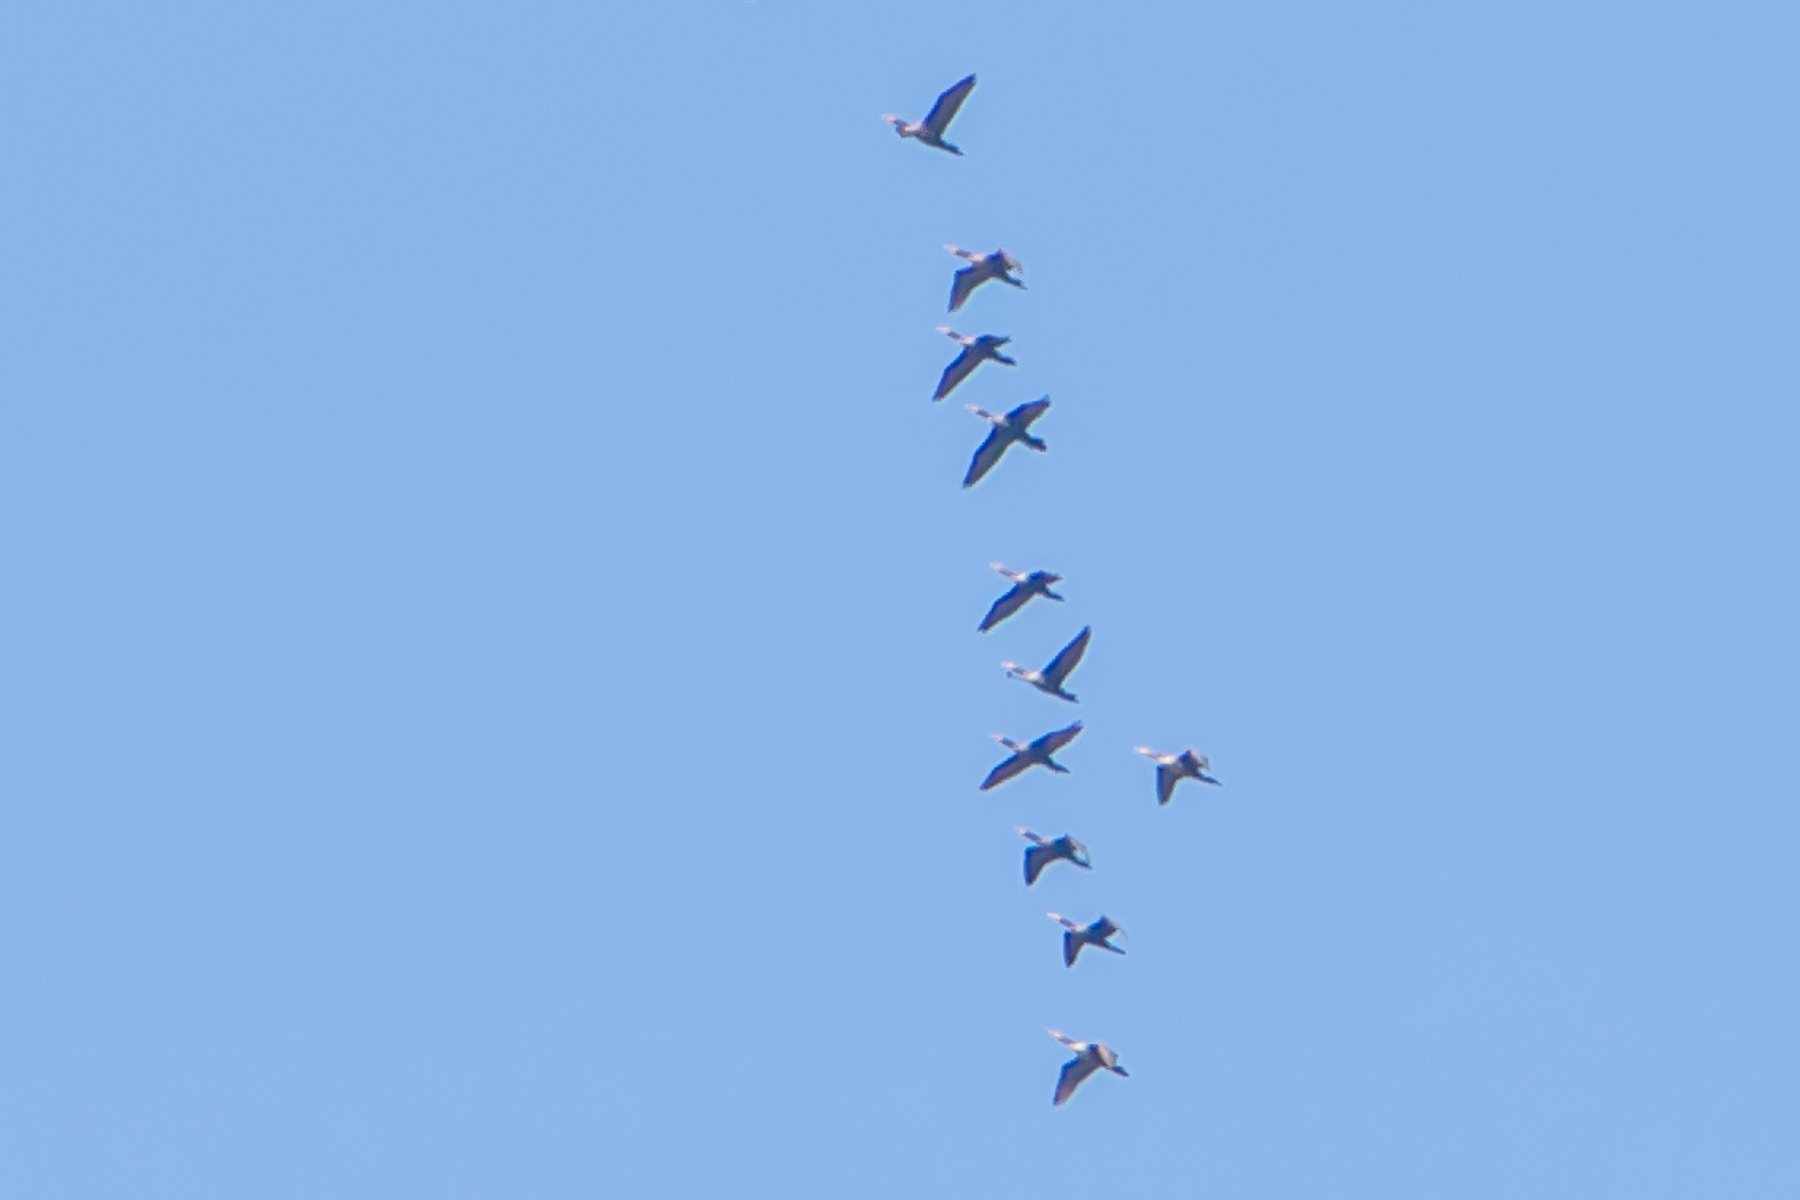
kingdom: Animalia
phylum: Chordata
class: Aves
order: Gruiformes
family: Gruidae
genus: Grus
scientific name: Grus canadensis
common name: Sandhill crane
